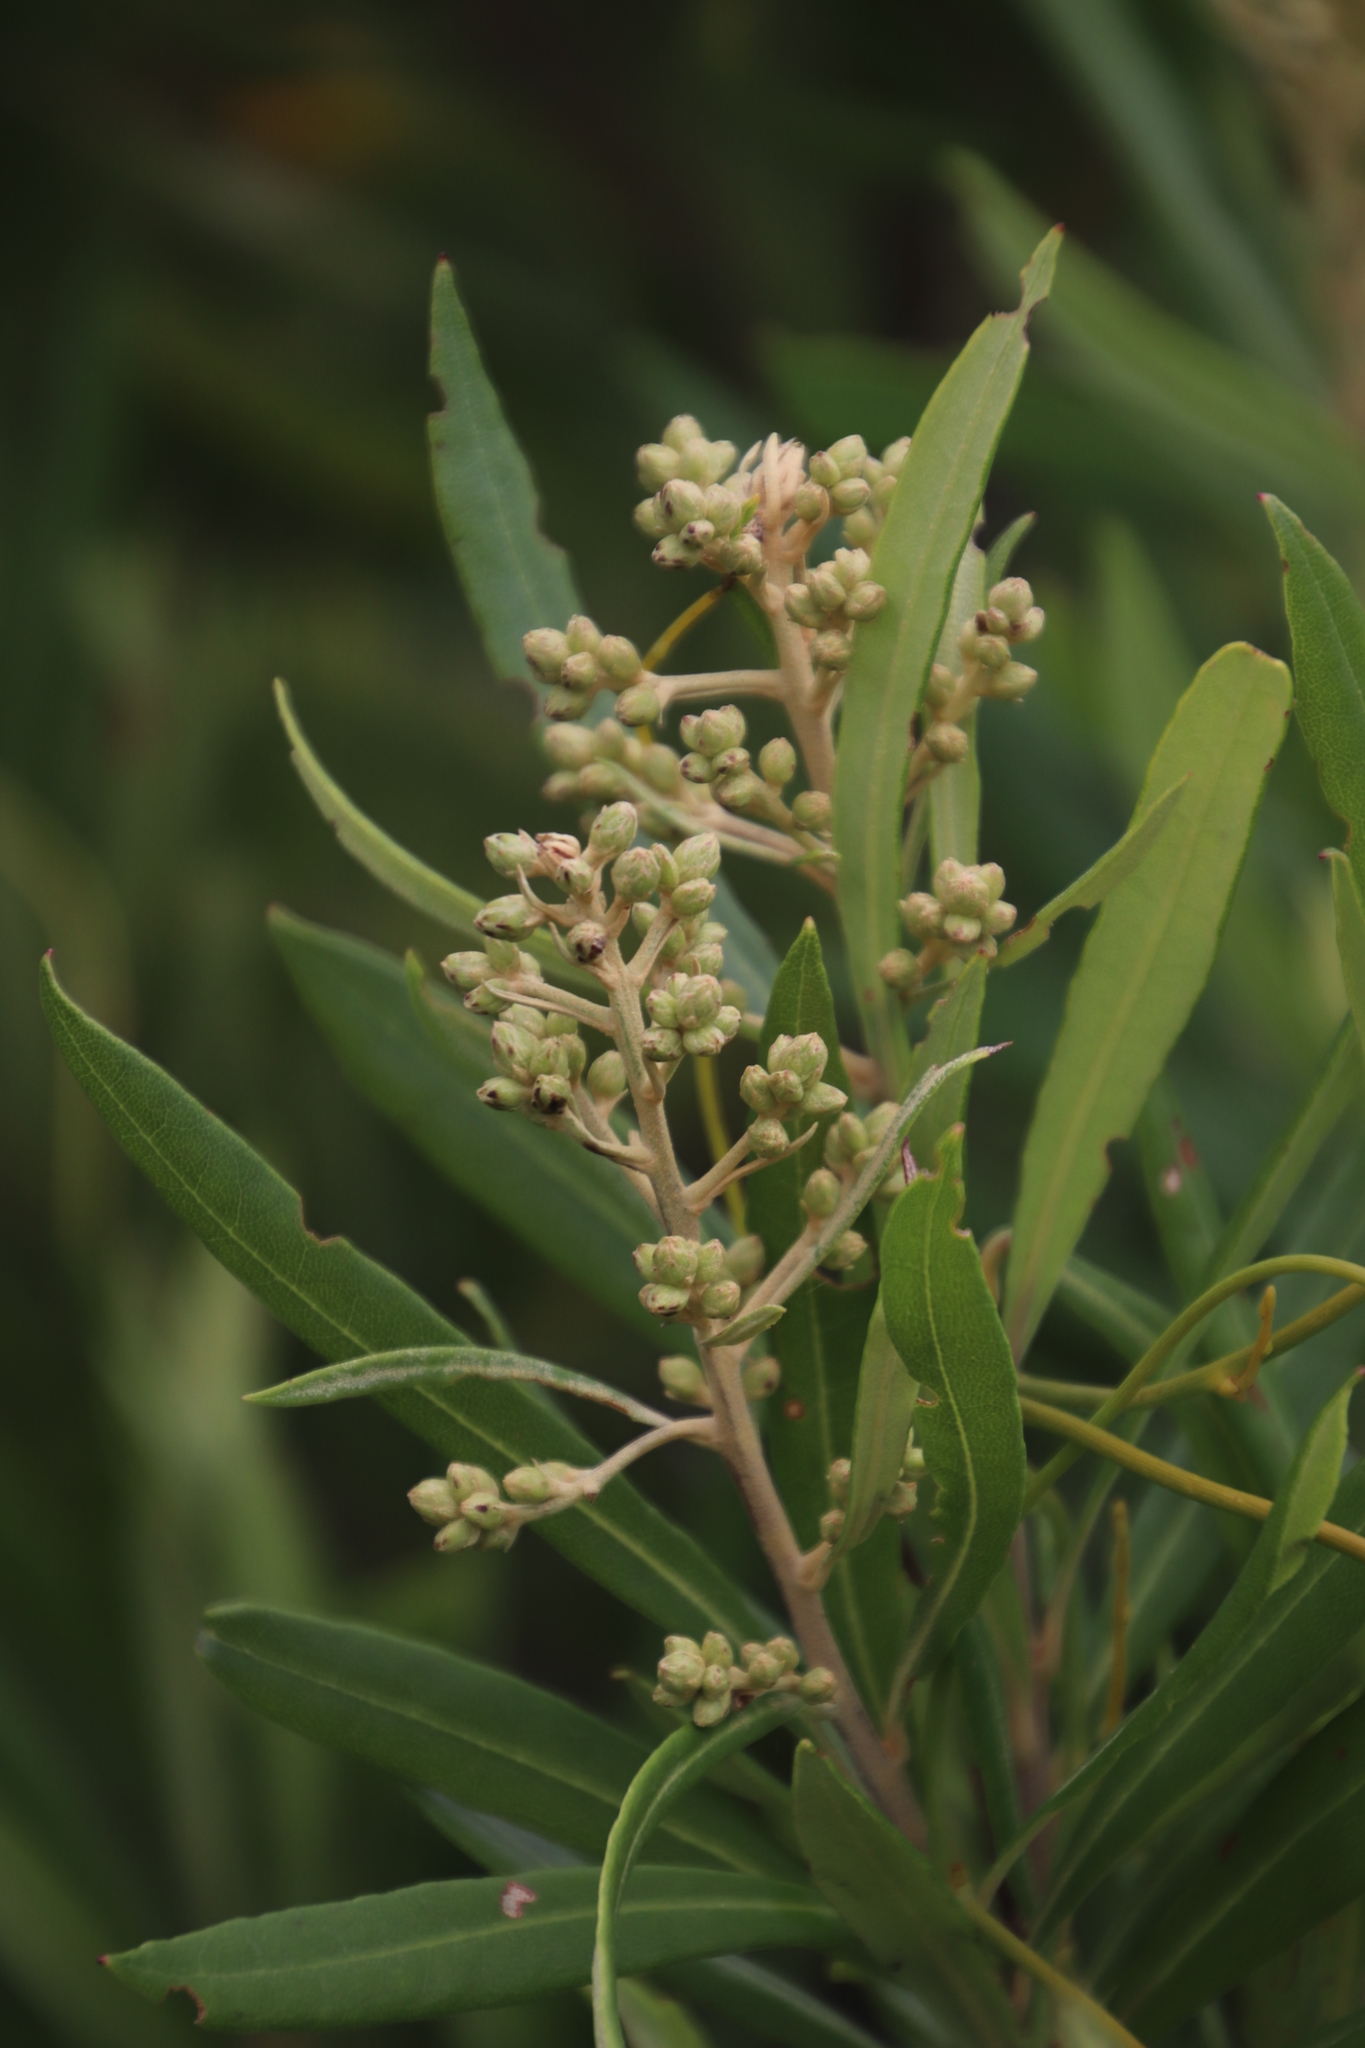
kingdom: Plantae
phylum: Tracheophyta
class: Magnoliopsida
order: Asterales
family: Asteraceae
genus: Brachylaena
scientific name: Brachylaena neriifolia
